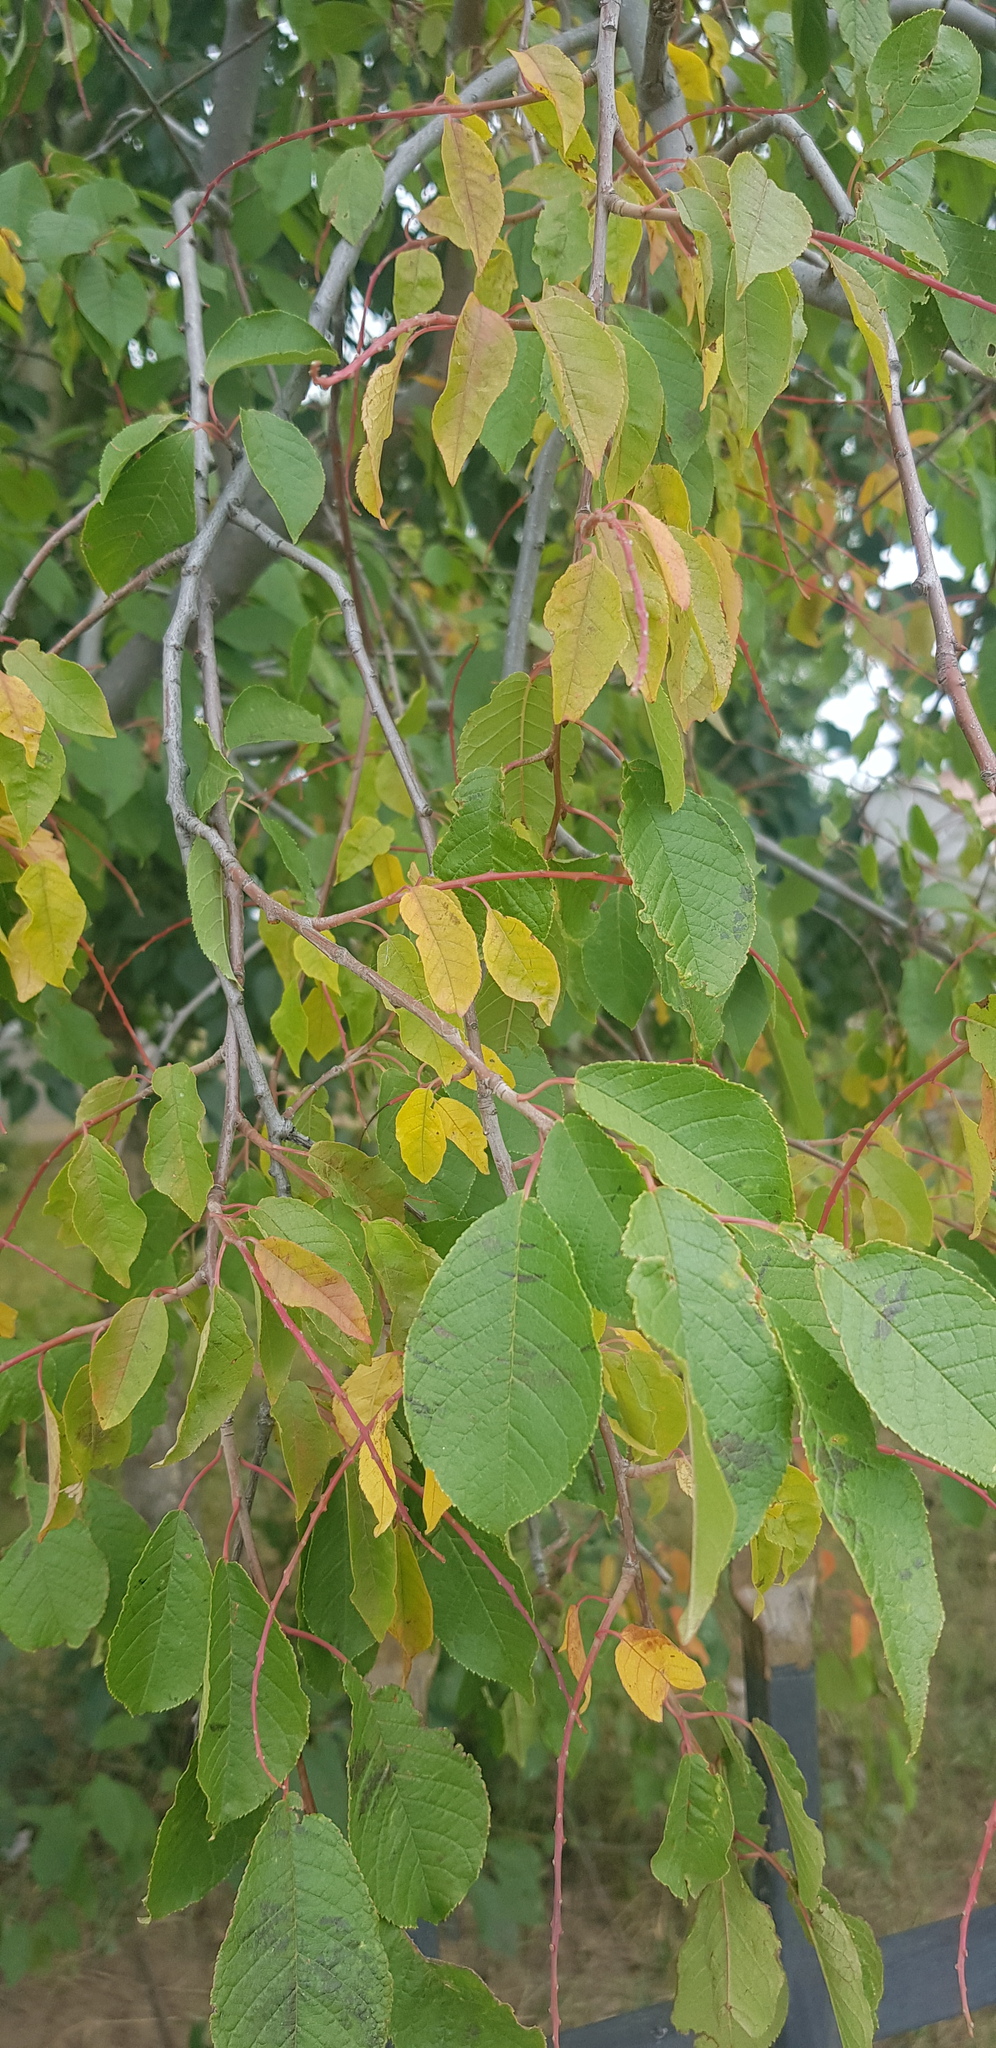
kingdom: Plantae
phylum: Tracheophyta
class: Magnoliopsida
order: Rosales
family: Ulmaceae
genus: Ulmus
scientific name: Ulmus pumila
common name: Siberian elm
